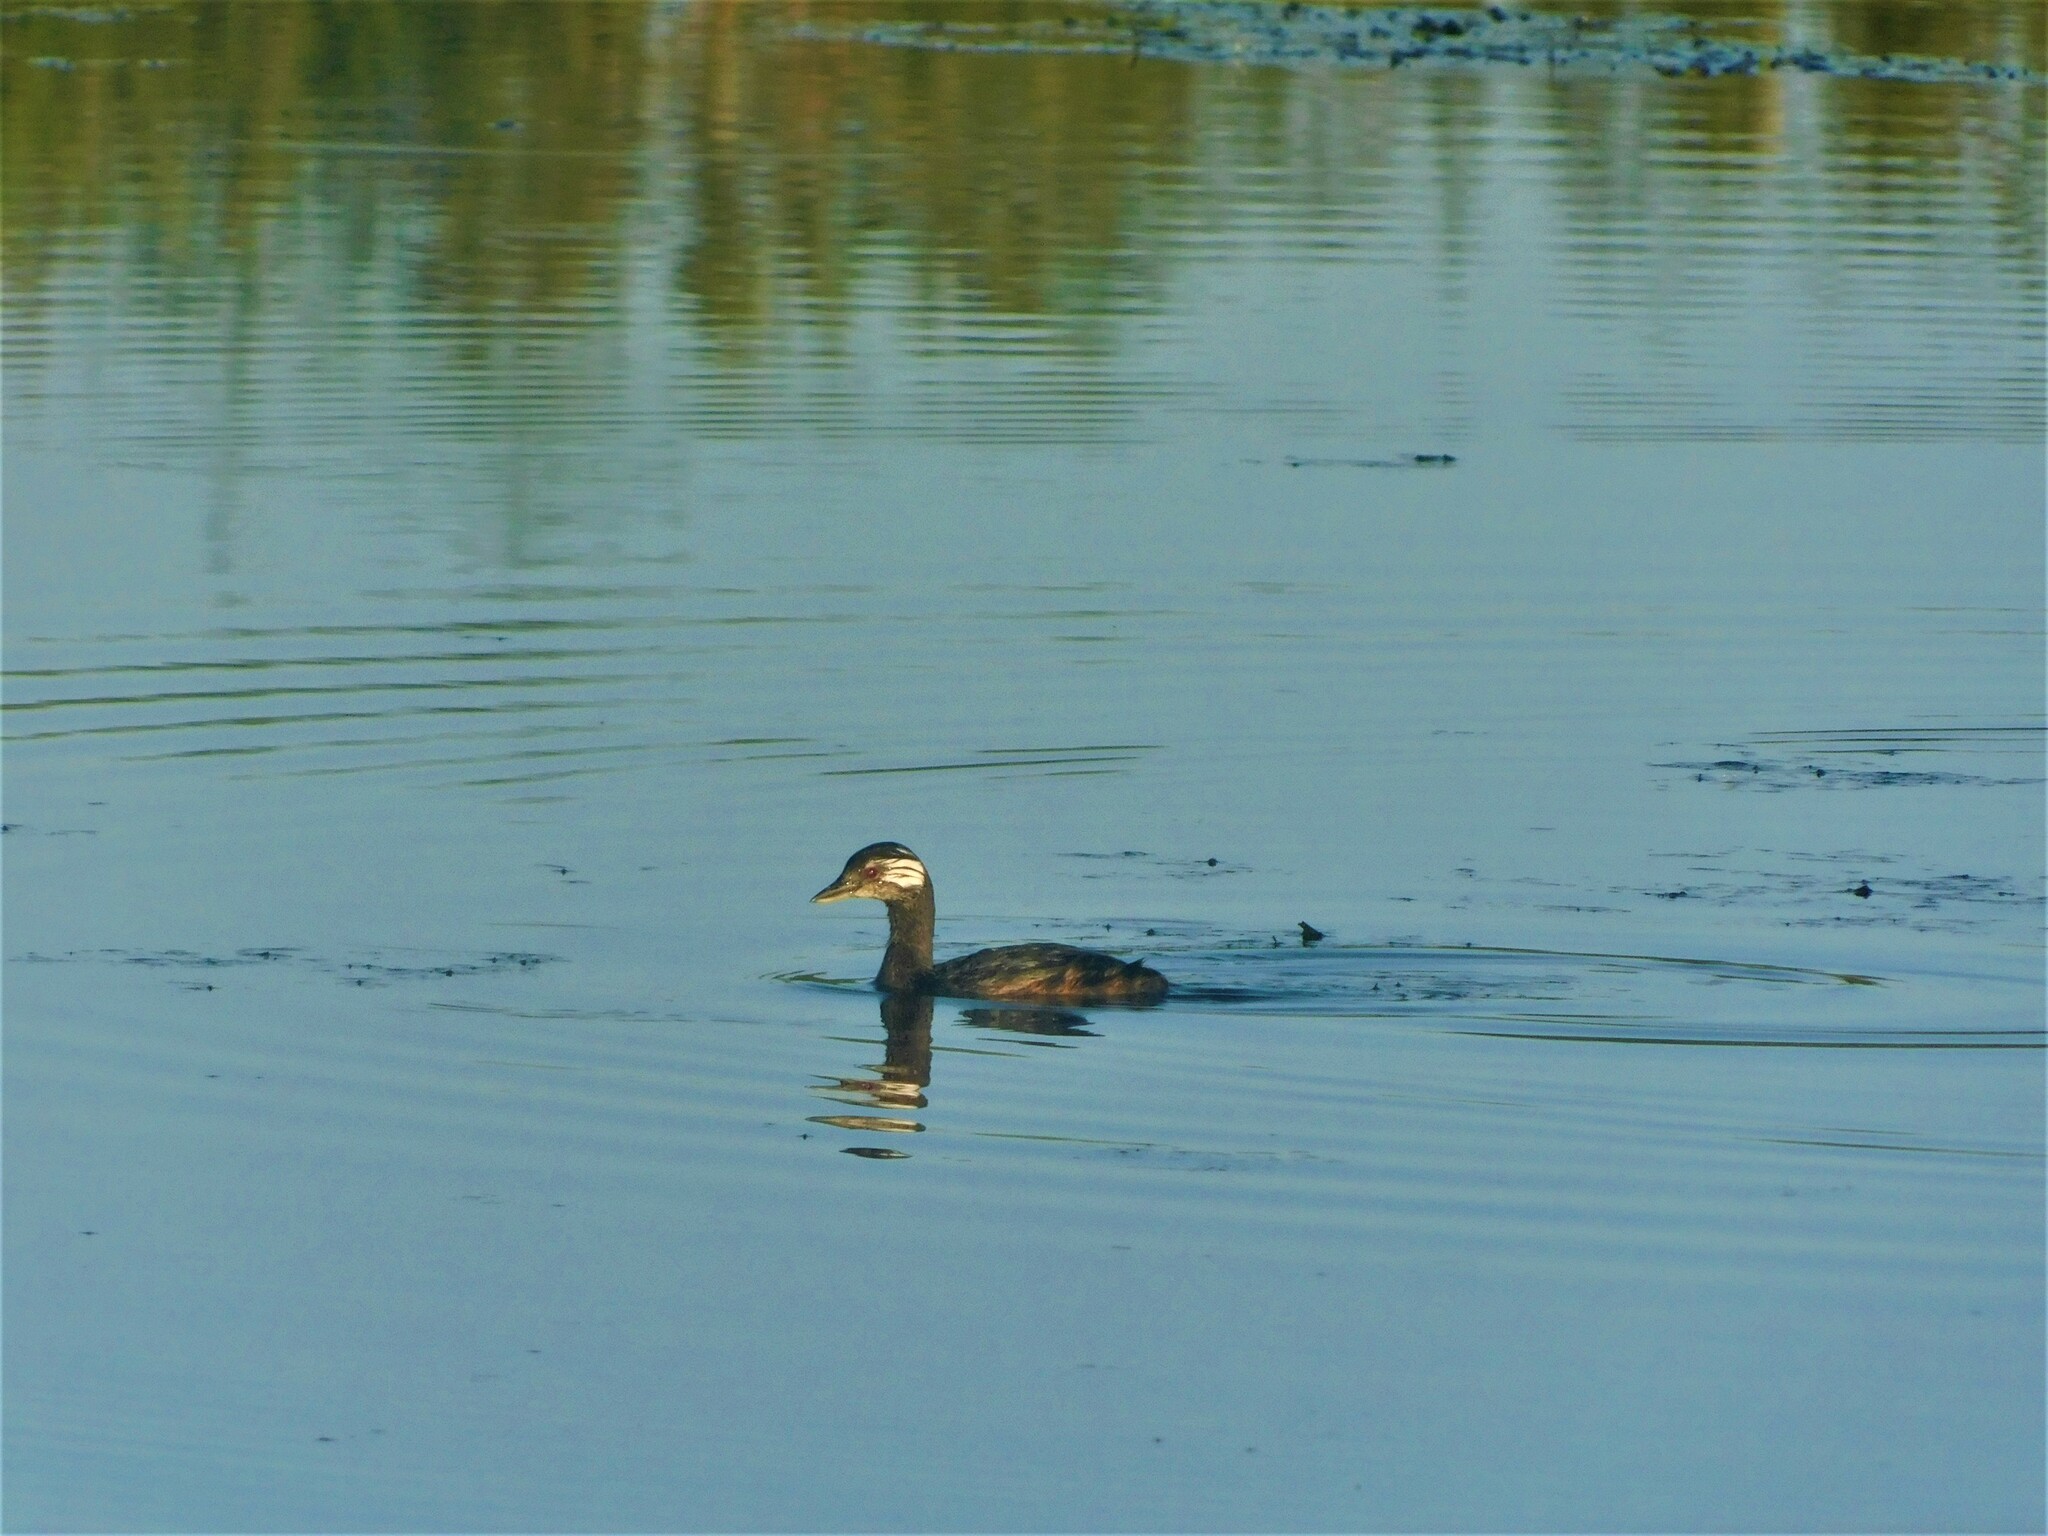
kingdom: Animalia
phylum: Chordata
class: Aves
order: Podicipediformes
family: Podicipedidae
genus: Rollandia
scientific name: Rollandia rolland
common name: White-tufted grebe
